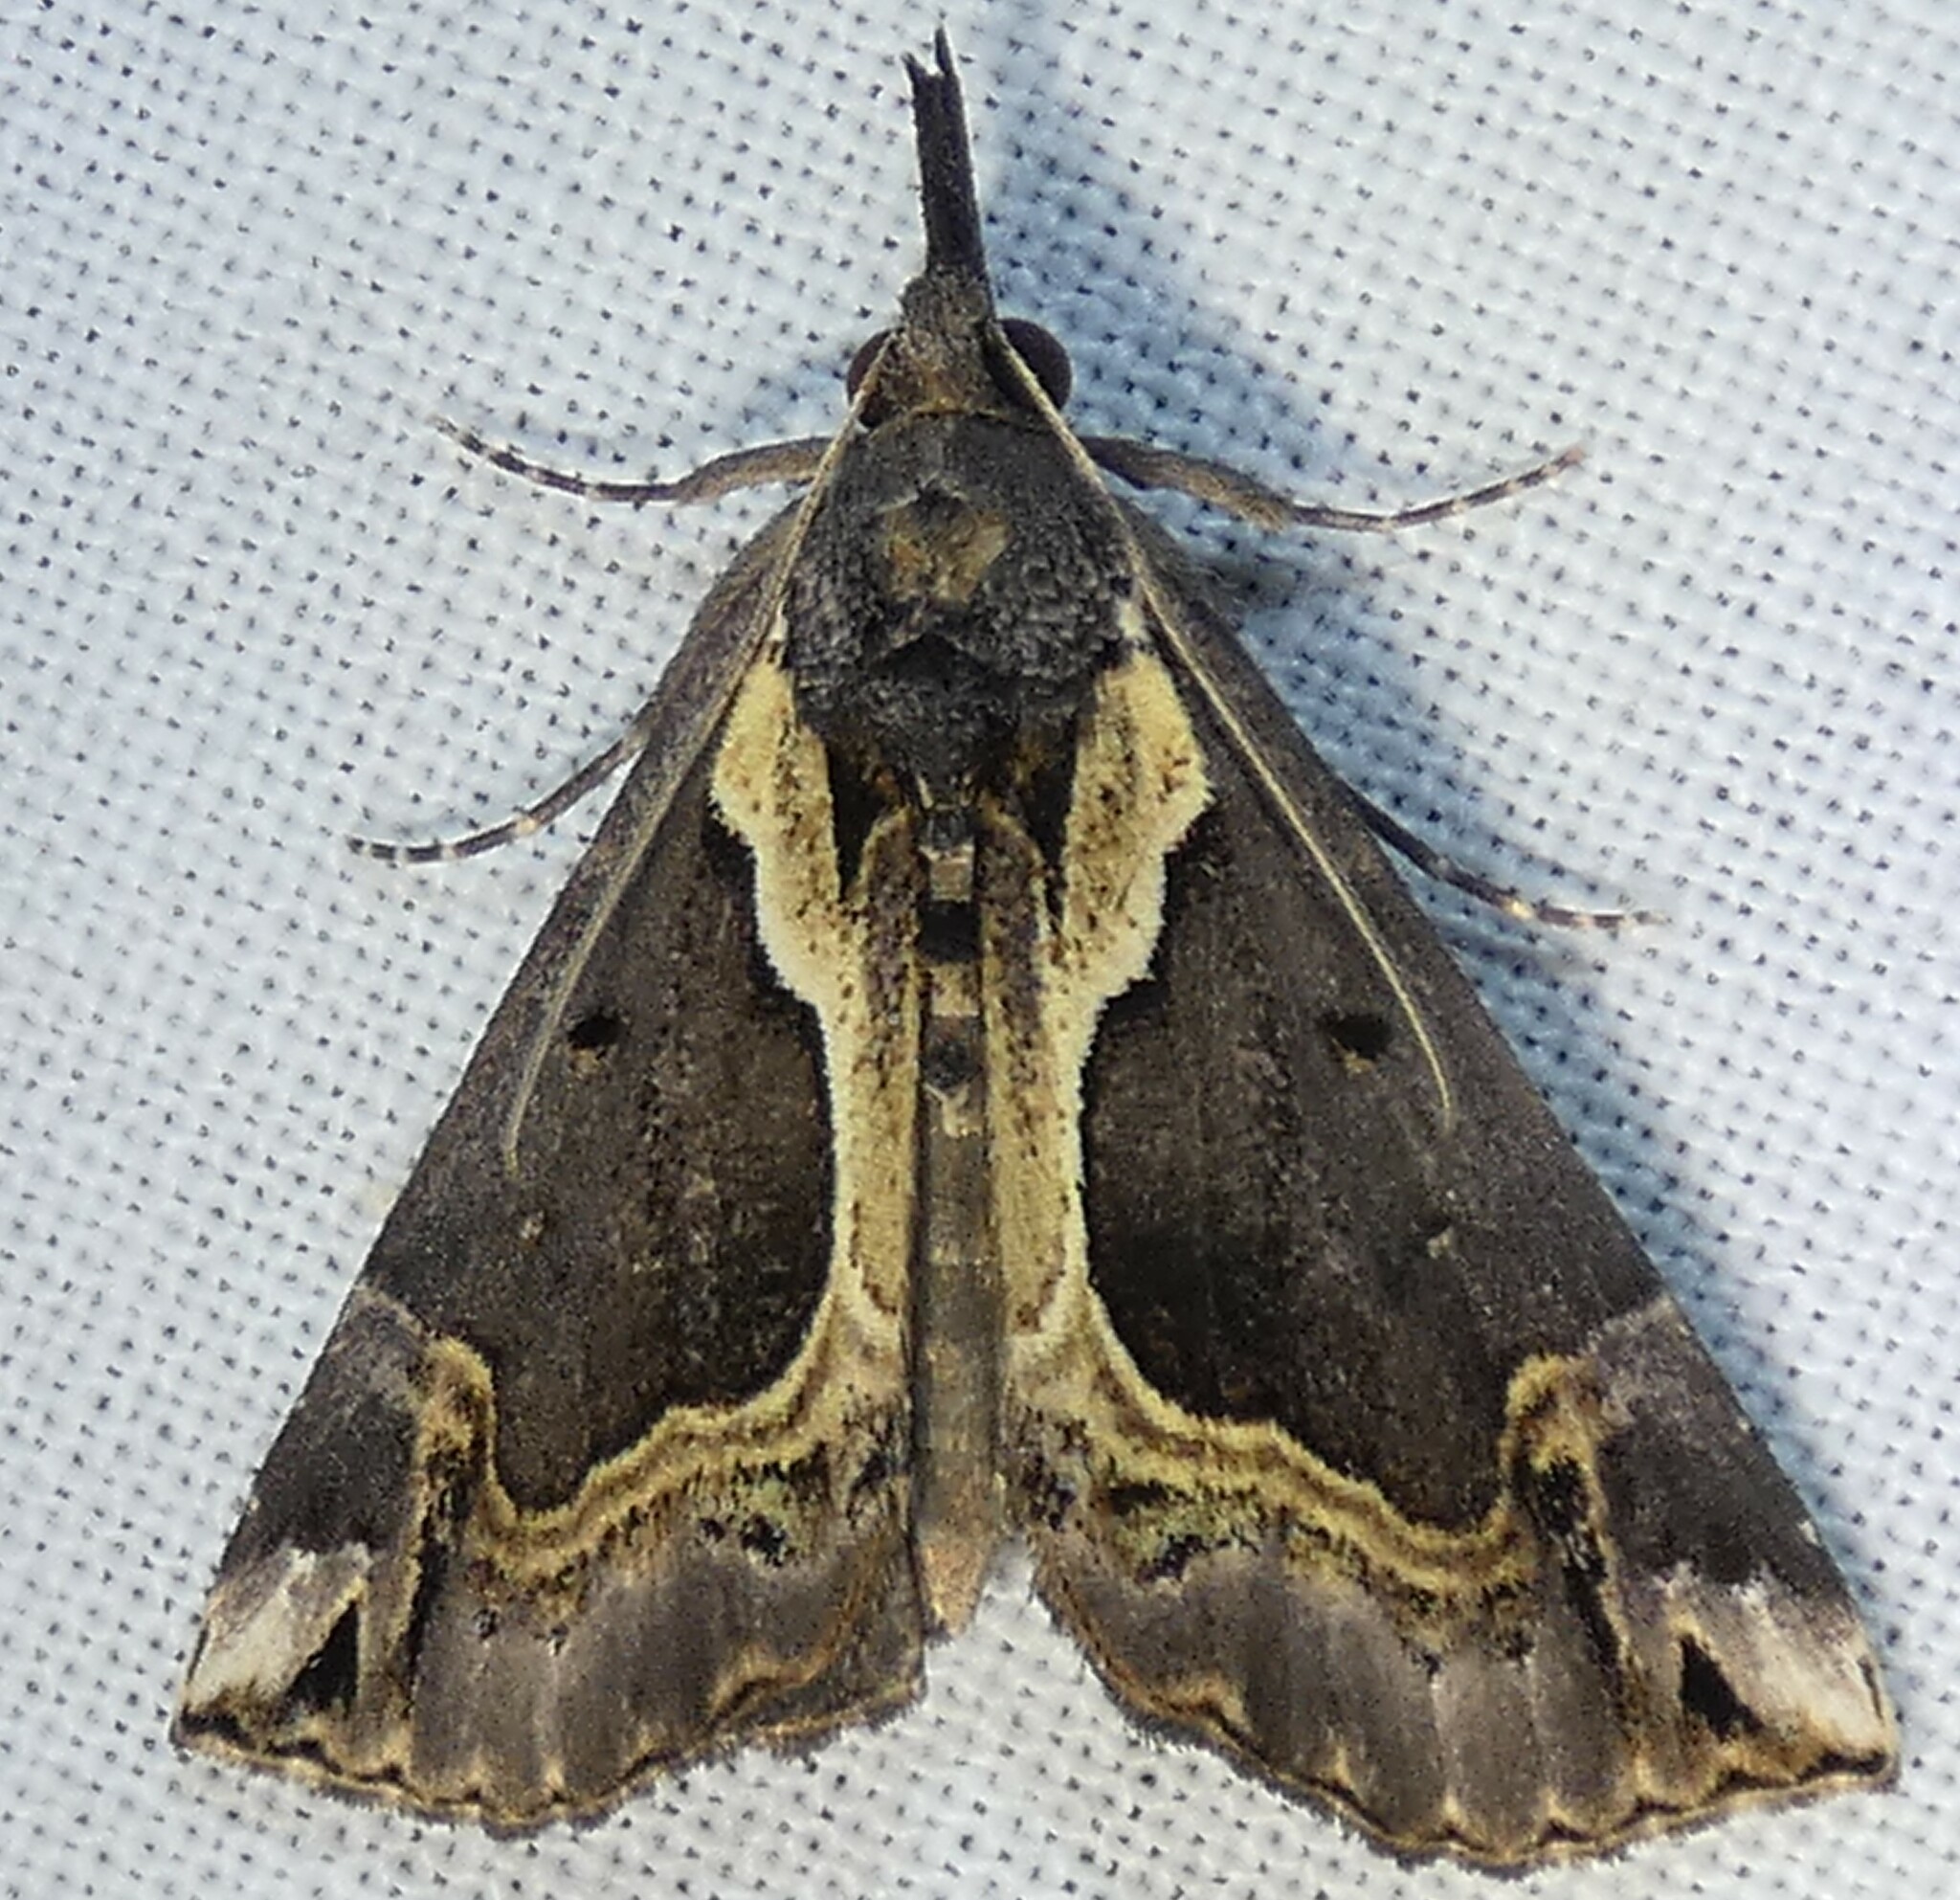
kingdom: Animalia
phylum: Arthropoda
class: Insecta
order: Lepidoptera
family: Erebidae
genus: Hypena
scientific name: Hypena ramstadtii
